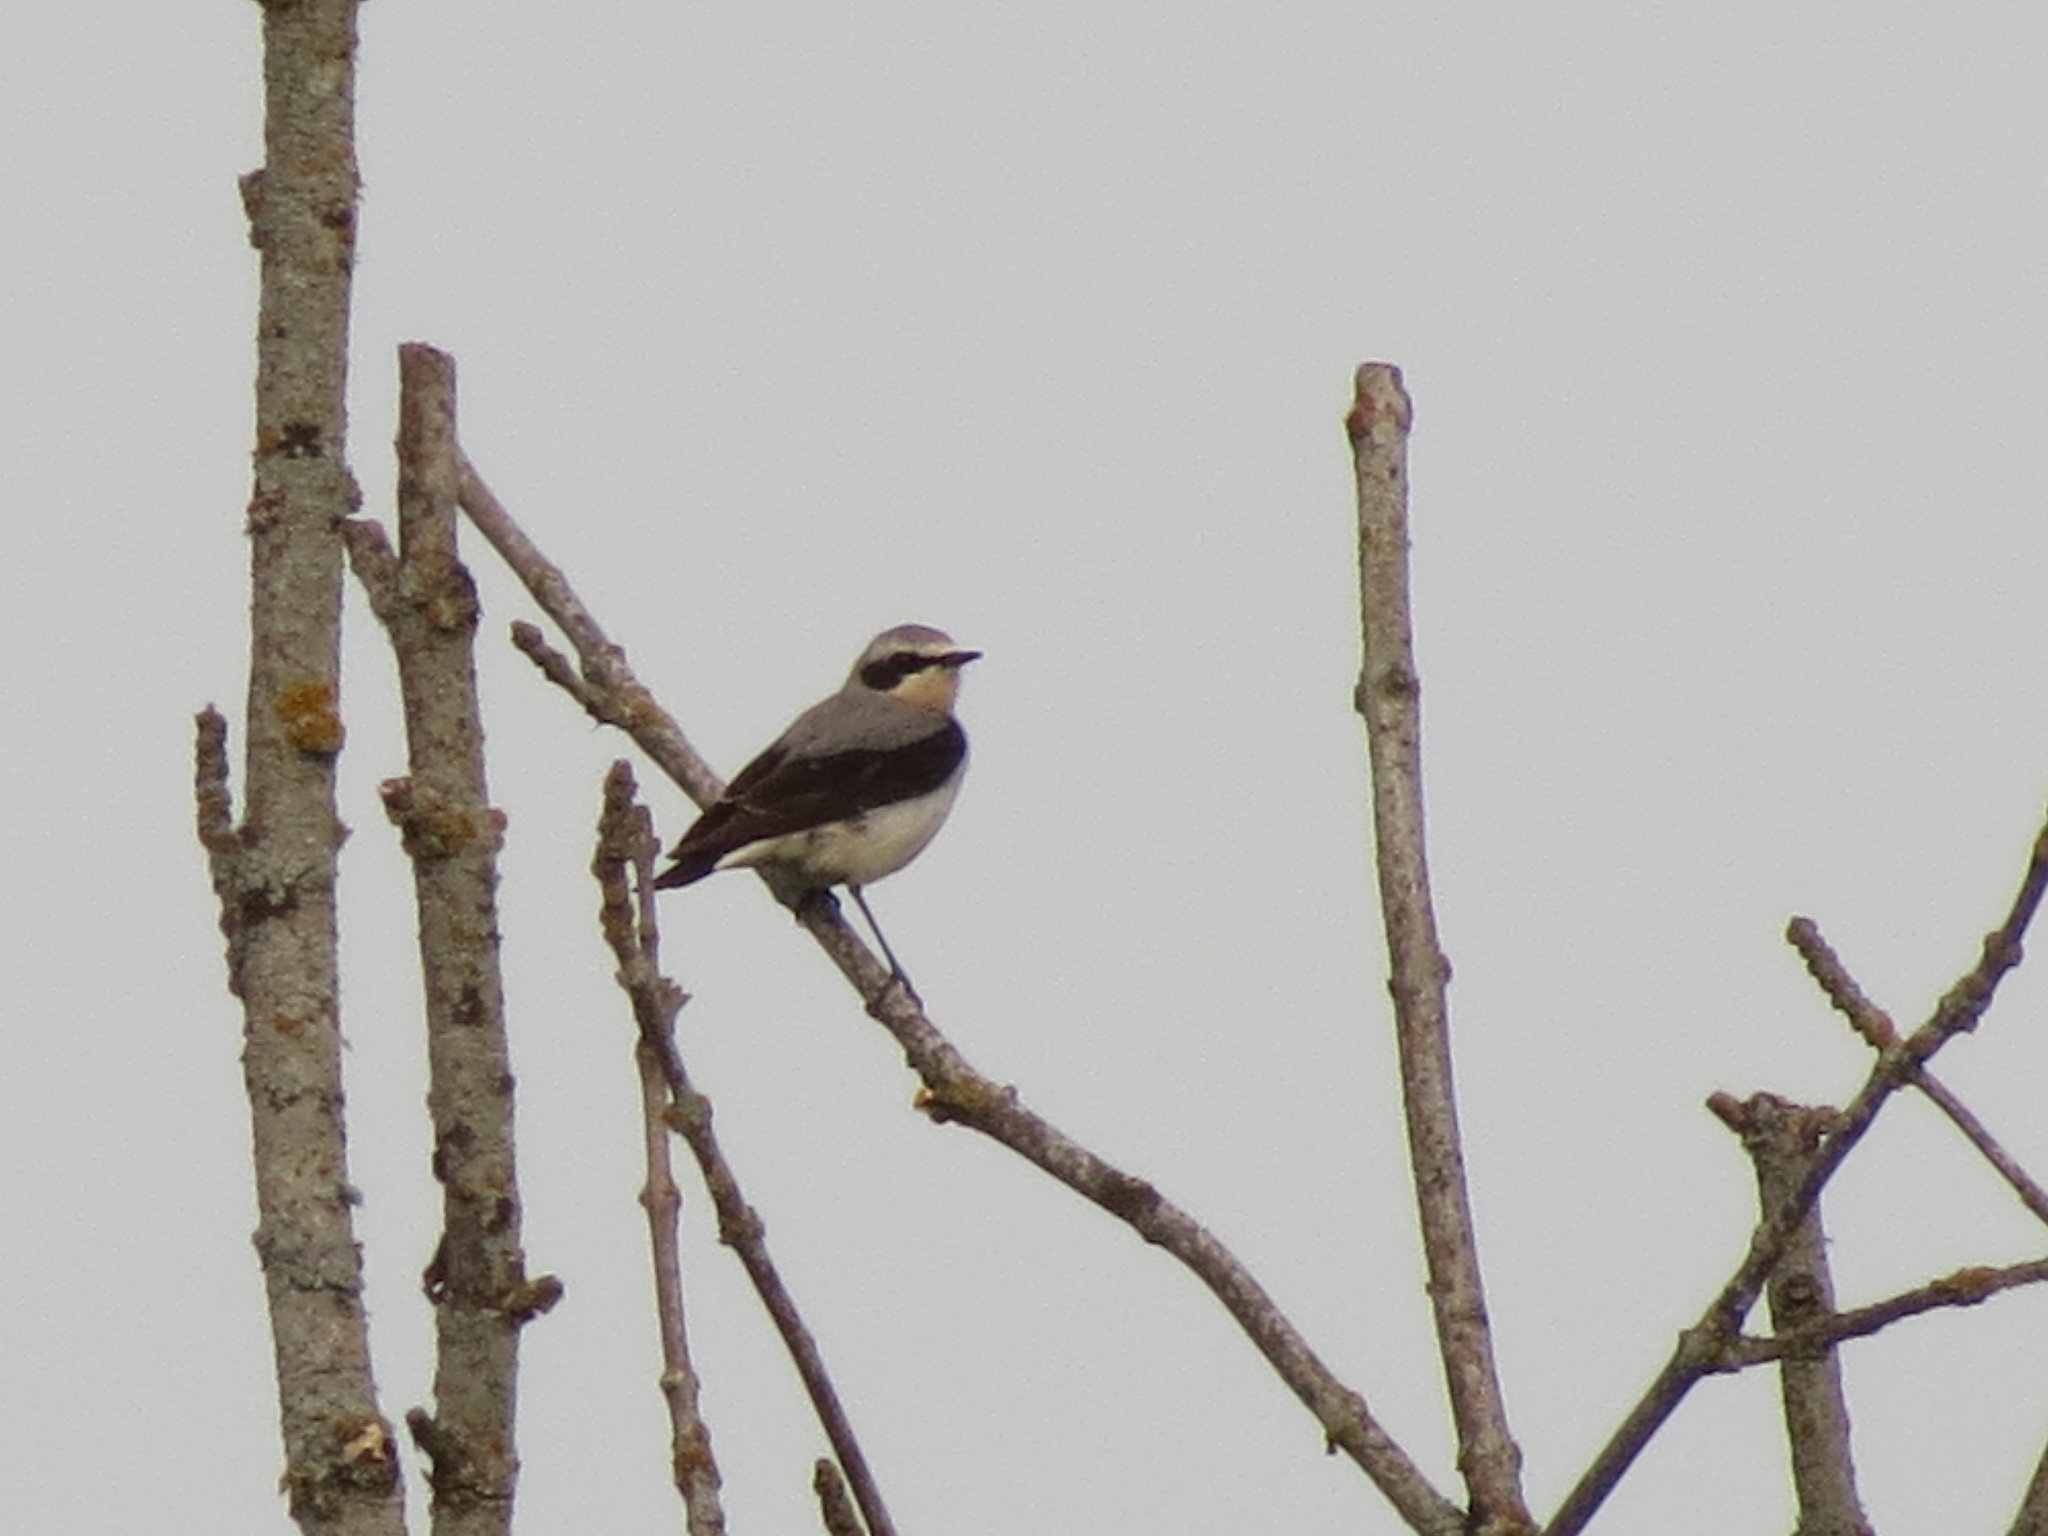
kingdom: Animalia
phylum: Chordata
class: Aves
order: Passeriformes
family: Muscicapidae
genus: Oenanthe
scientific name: Oenanthe oenanthe
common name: Northern wheatear
